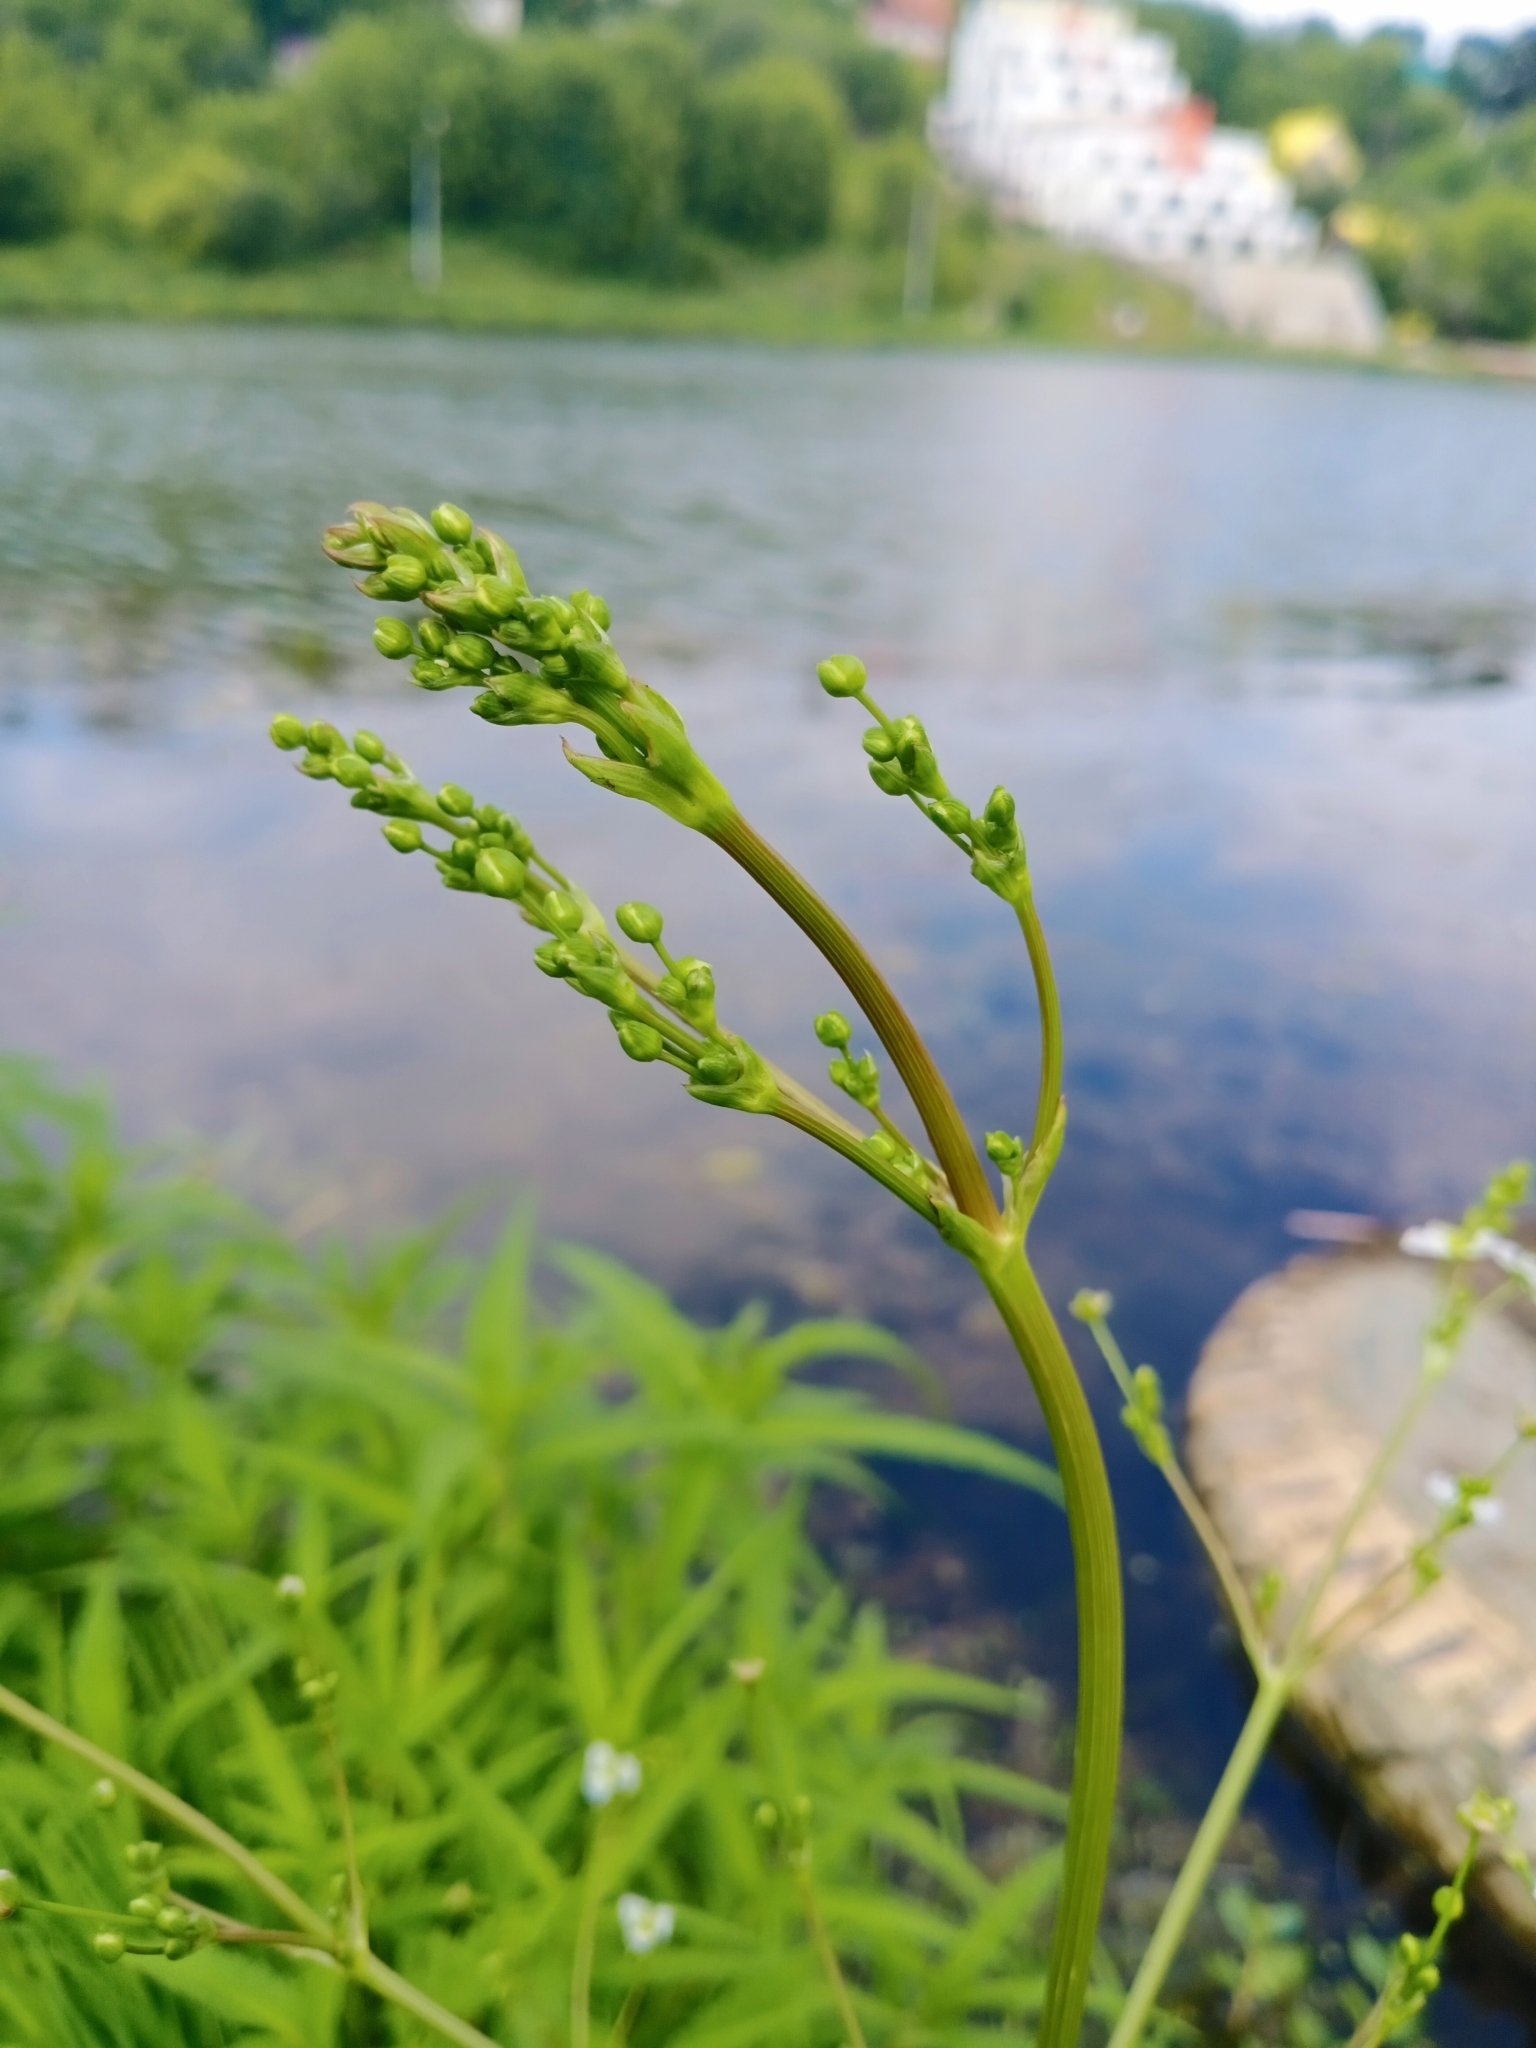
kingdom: Plantae
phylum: Tracheophyta
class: Liliopsida
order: Alismatales
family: Alismataceae
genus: Alisma
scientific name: Alisma plantago-aquatica
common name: Water-plantain
